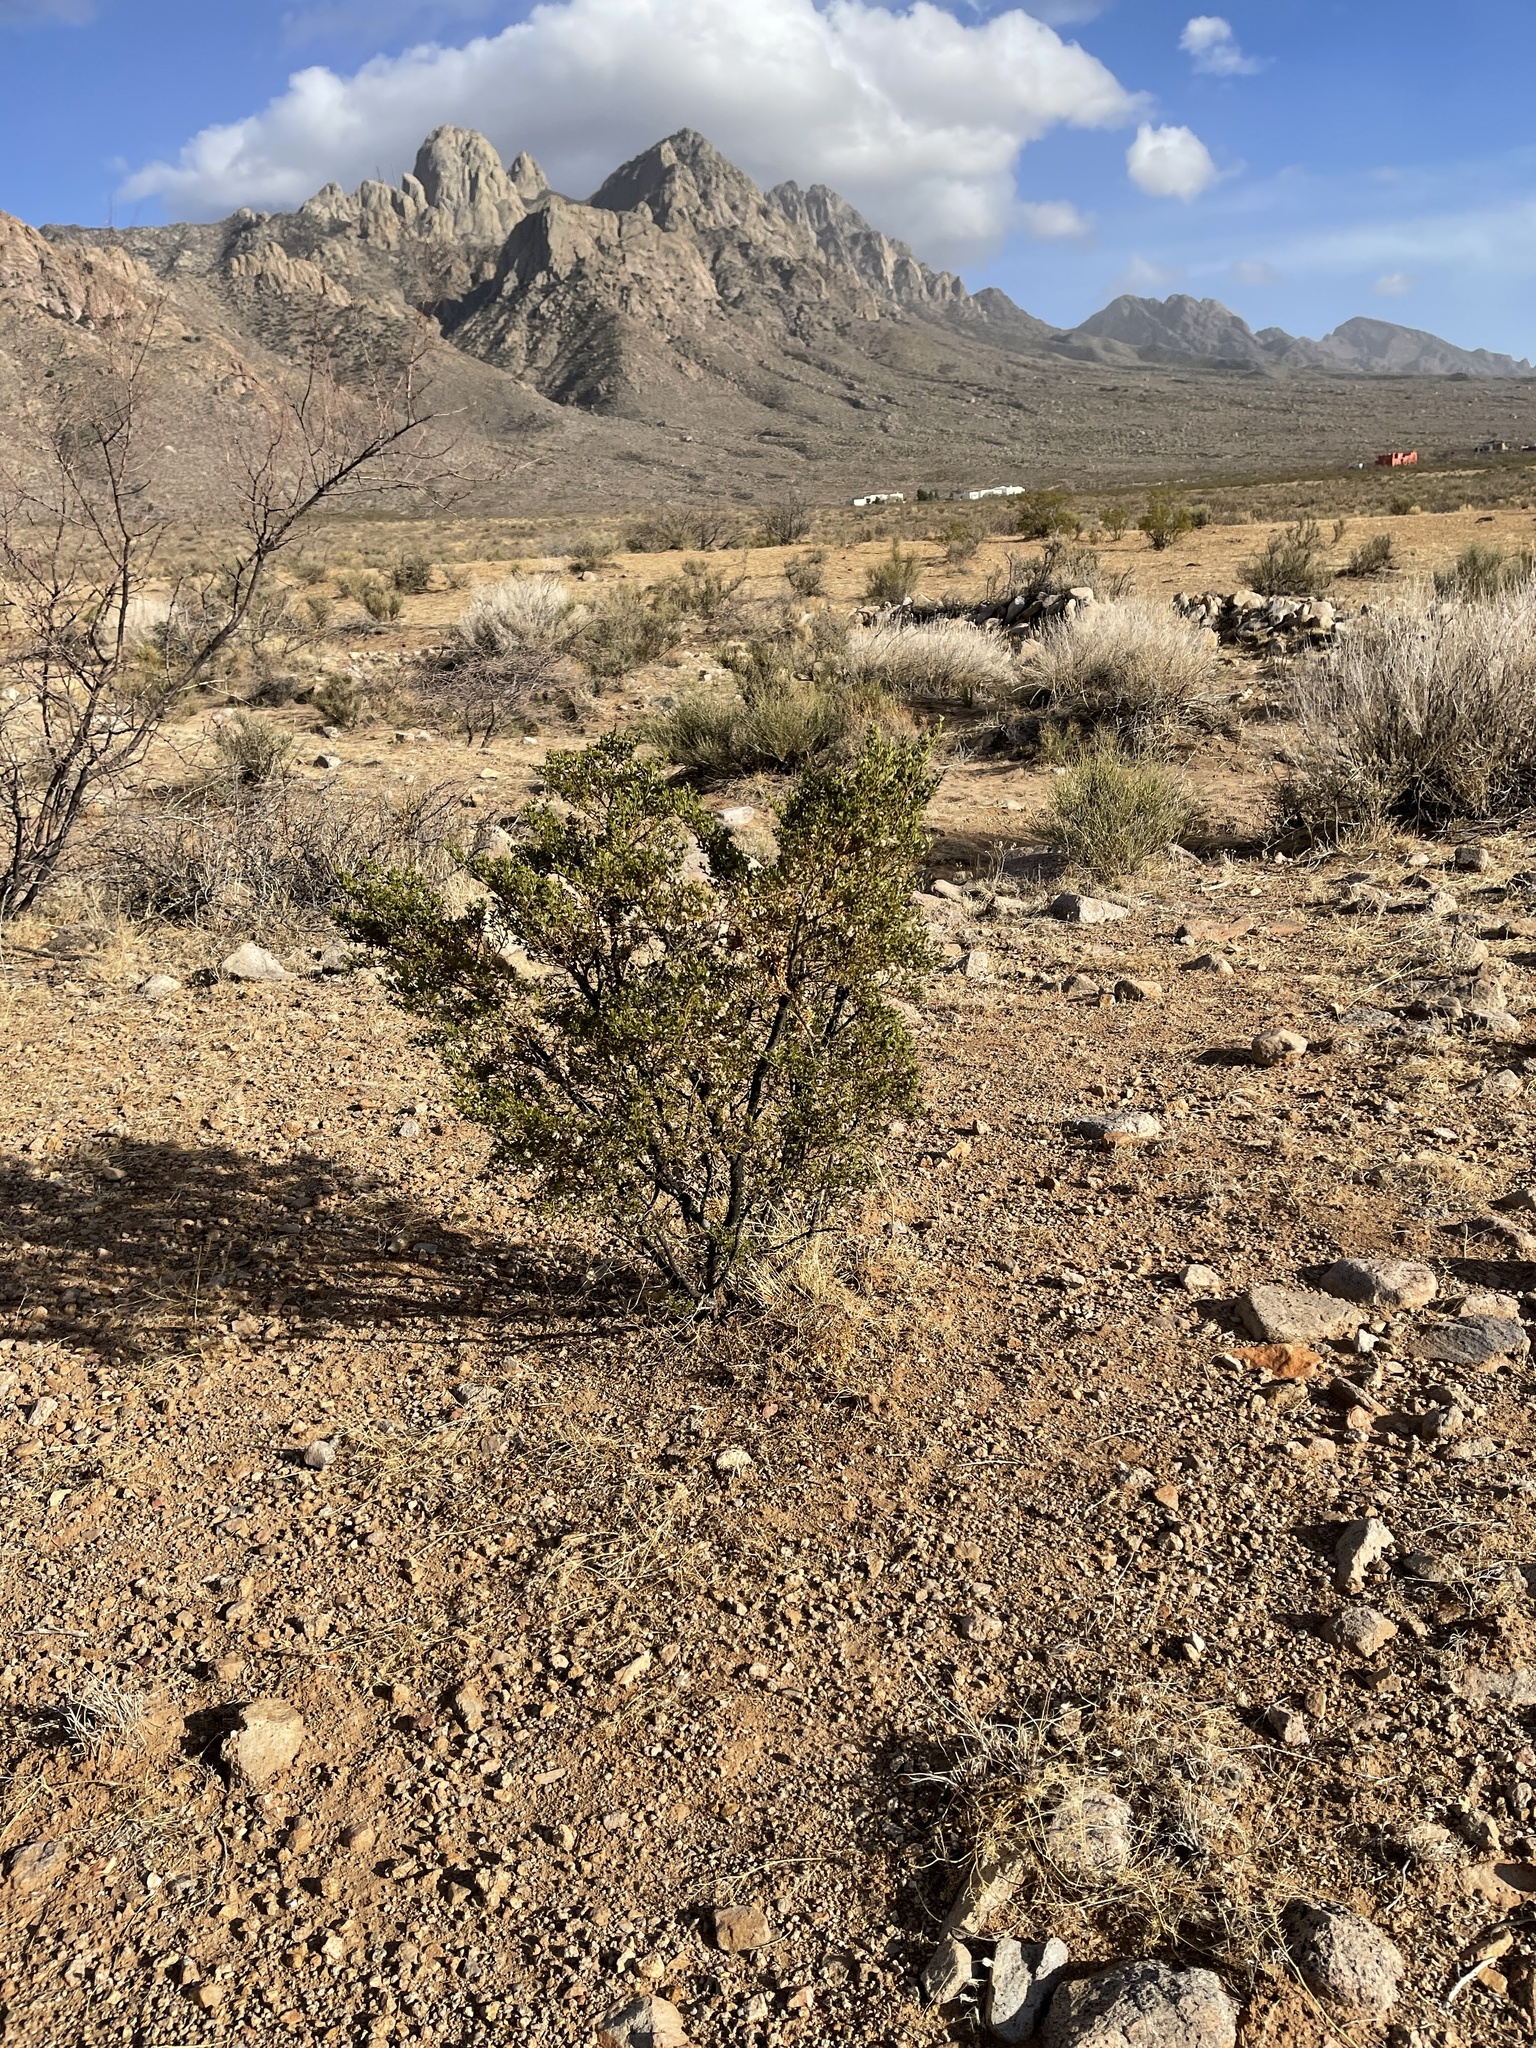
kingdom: Plantae
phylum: Tracheophyta
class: Magnoliopsida
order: Zygophyllales
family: Zygophyllaceae
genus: Larrea
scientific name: Larrea tridentata
